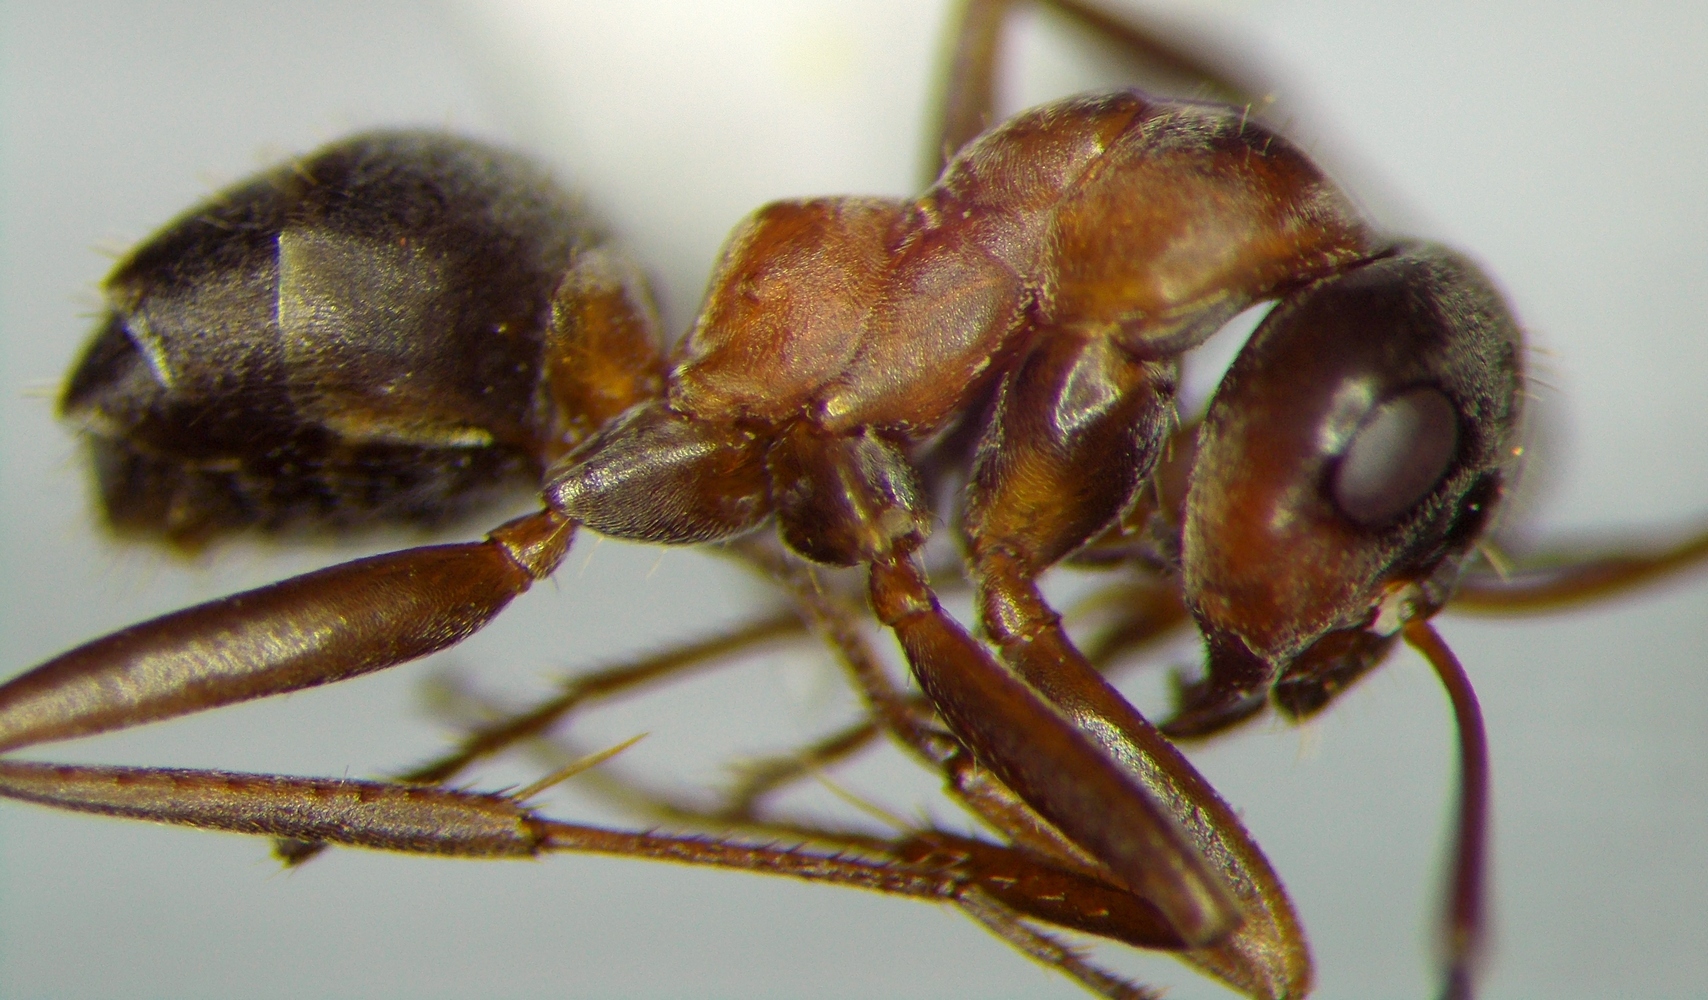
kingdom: Animalia
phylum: Arthropoda
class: Insecta
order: Hymenoptera
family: Formicidae
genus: Formica
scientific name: Formica rufibarbis
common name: Red barbed ant
